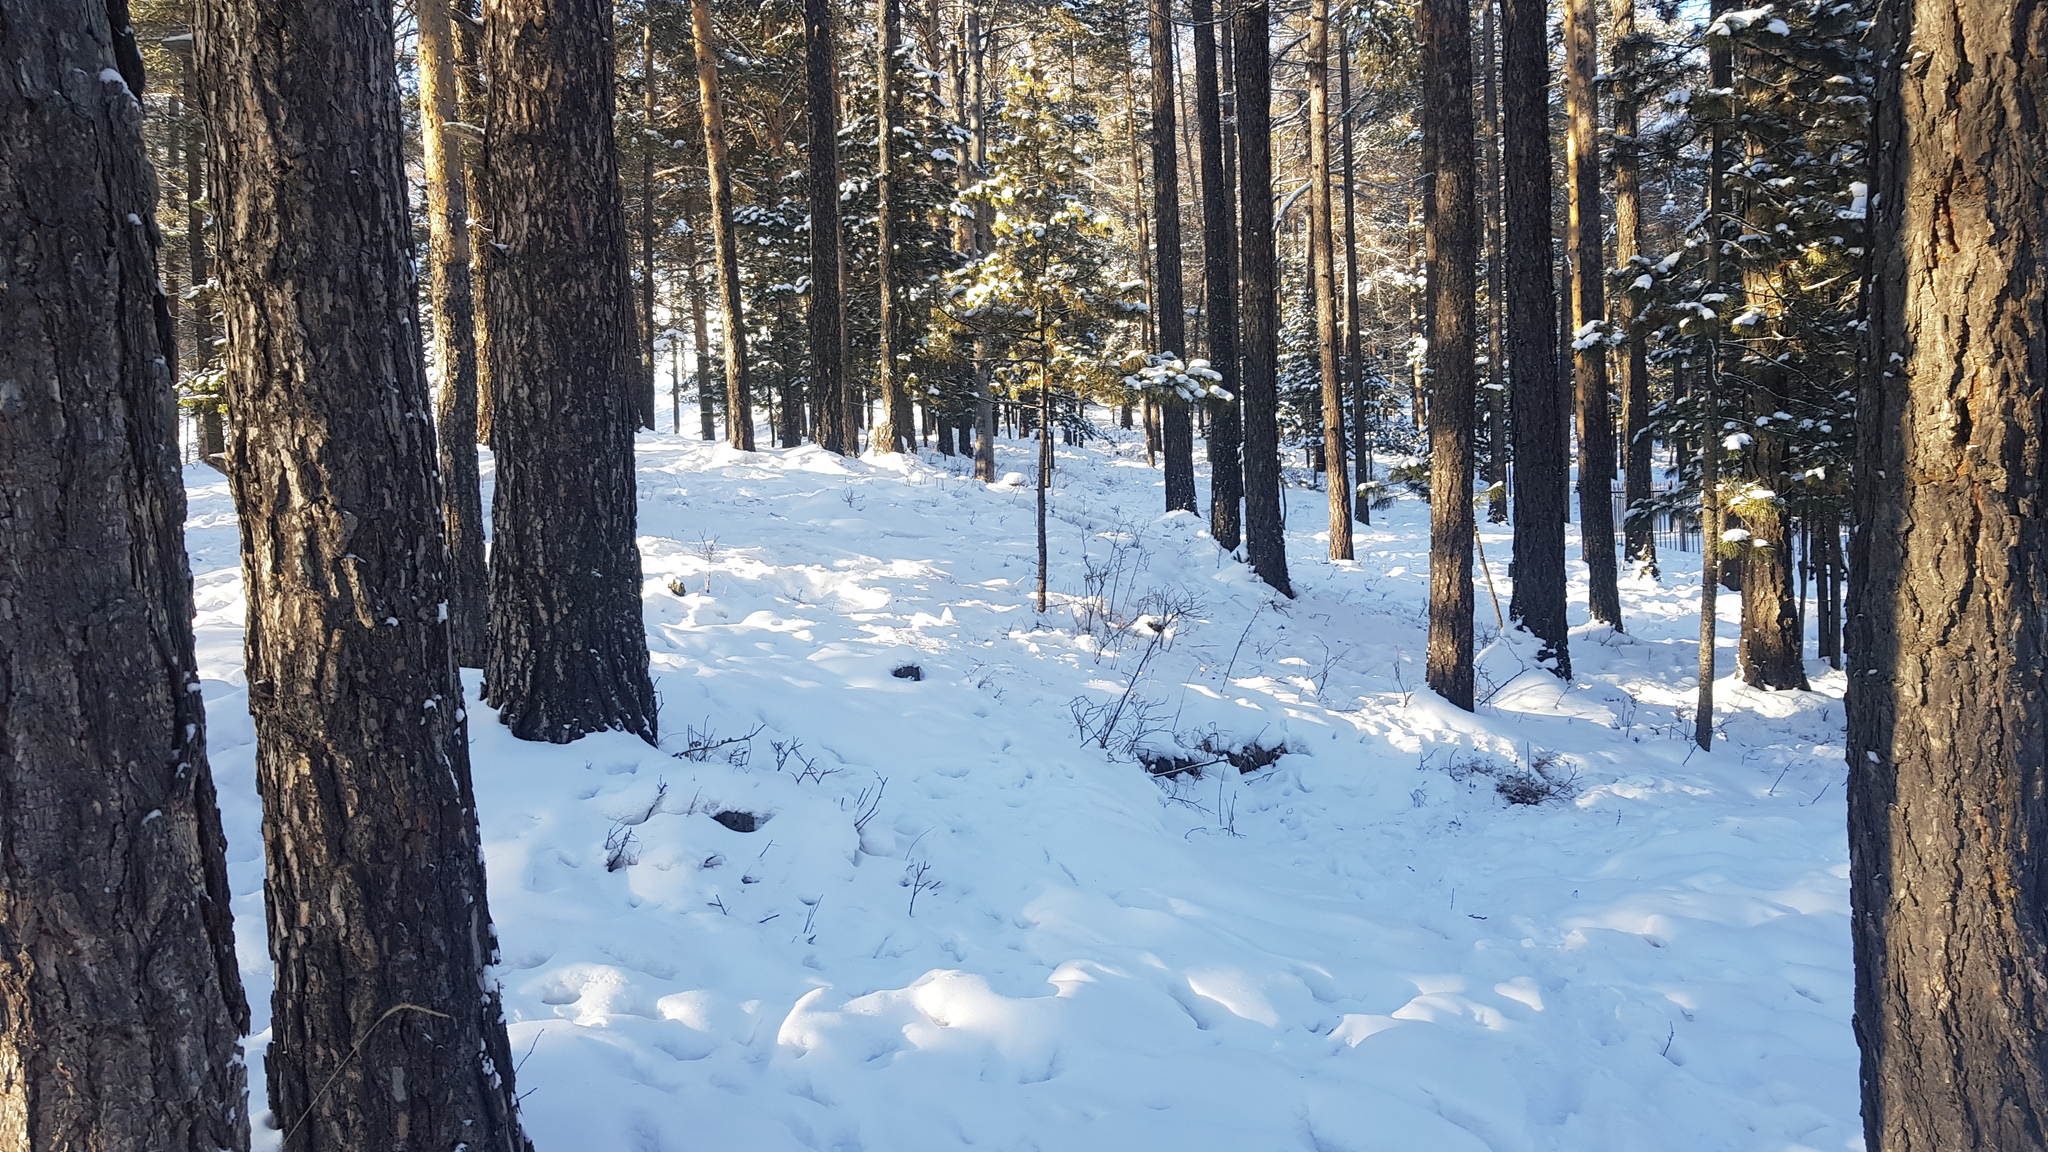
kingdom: Plantae
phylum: Tracheophyta
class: Pinopsida
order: Pinales
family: Pinaceae
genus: Larix
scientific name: Larix sibirica
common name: Siberian larch
